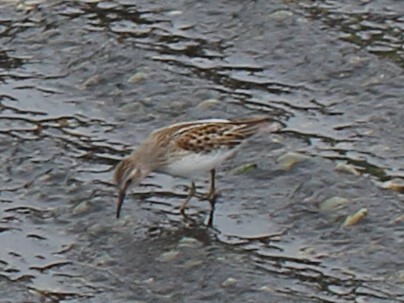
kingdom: Animalia
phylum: Chordata
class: Aves
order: Charadriiformes
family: Scolopacidae
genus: Calidris
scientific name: Calidris minutilla
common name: Least sandpiper
